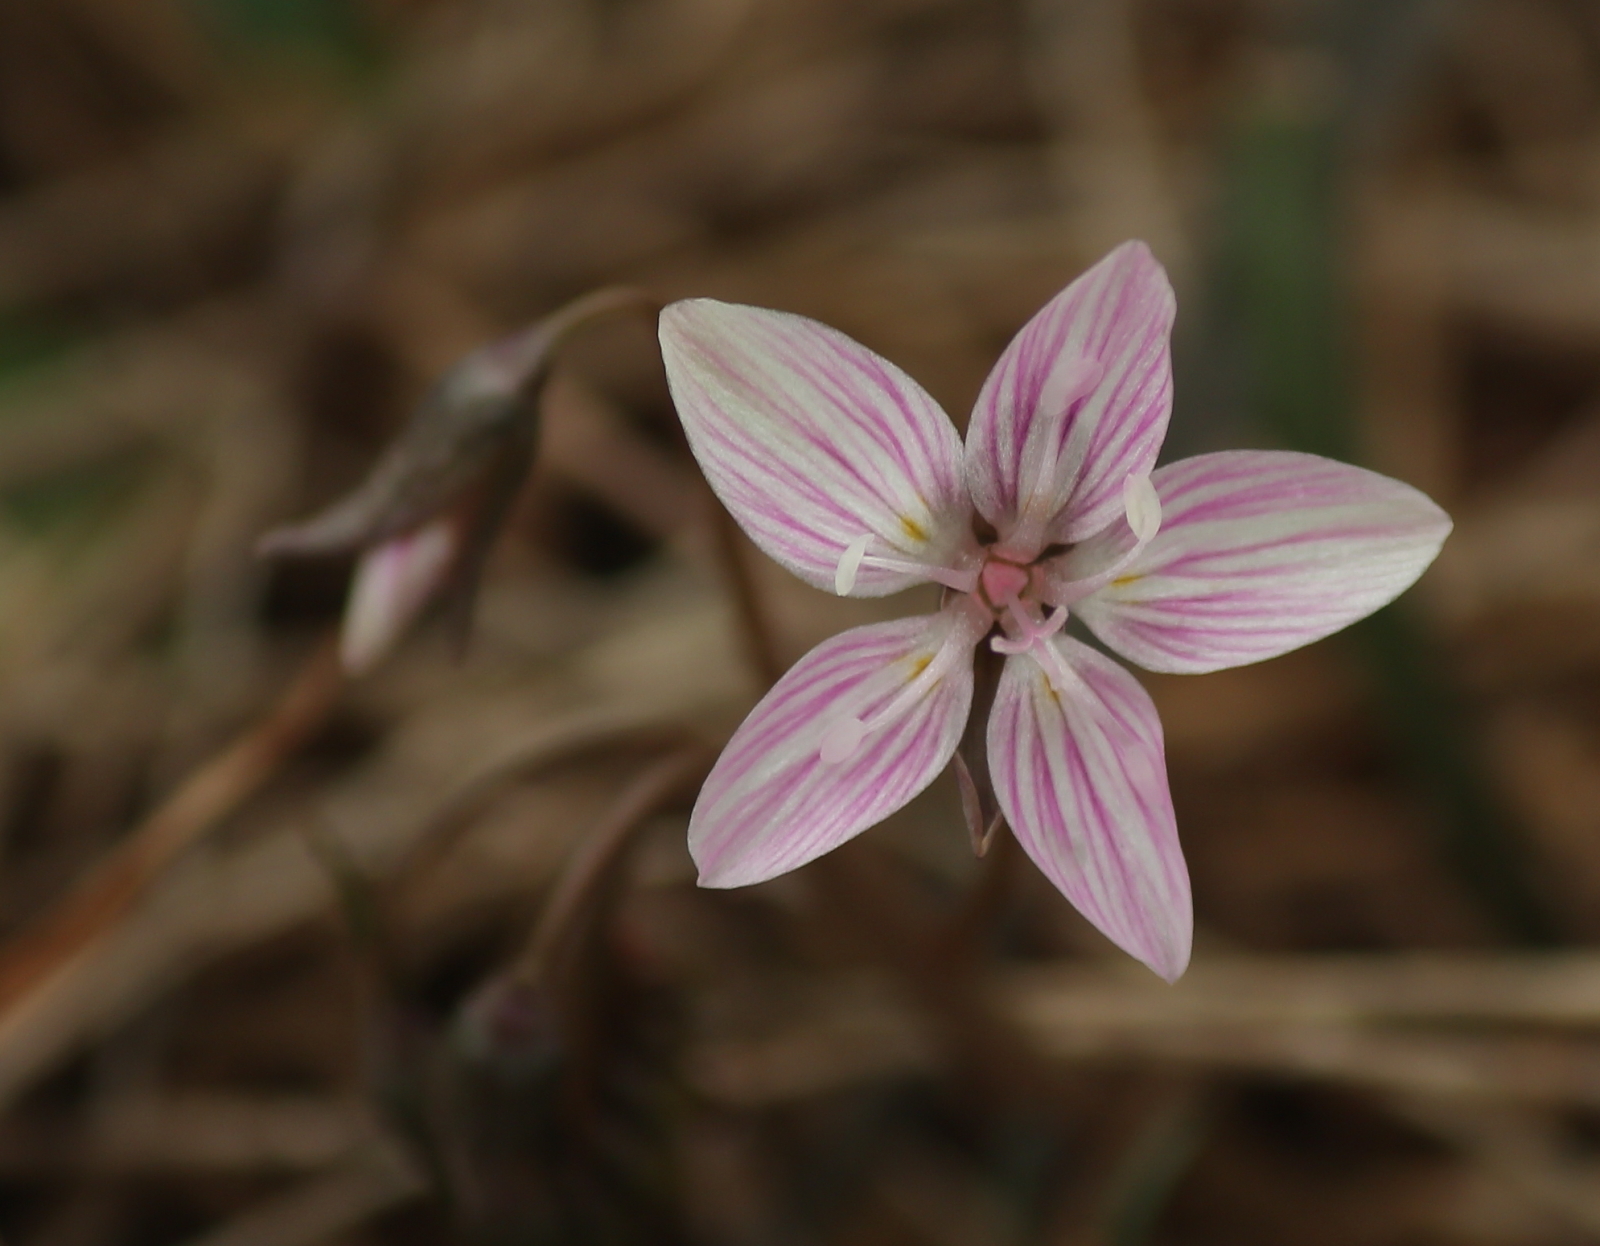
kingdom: Plantae
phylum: Tracheophyta
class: Magnoliopsida
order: Caryophyllales
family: Montiaceae
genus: Claytonia
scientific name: Claytonia virginica
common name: Virginia springbeauty
